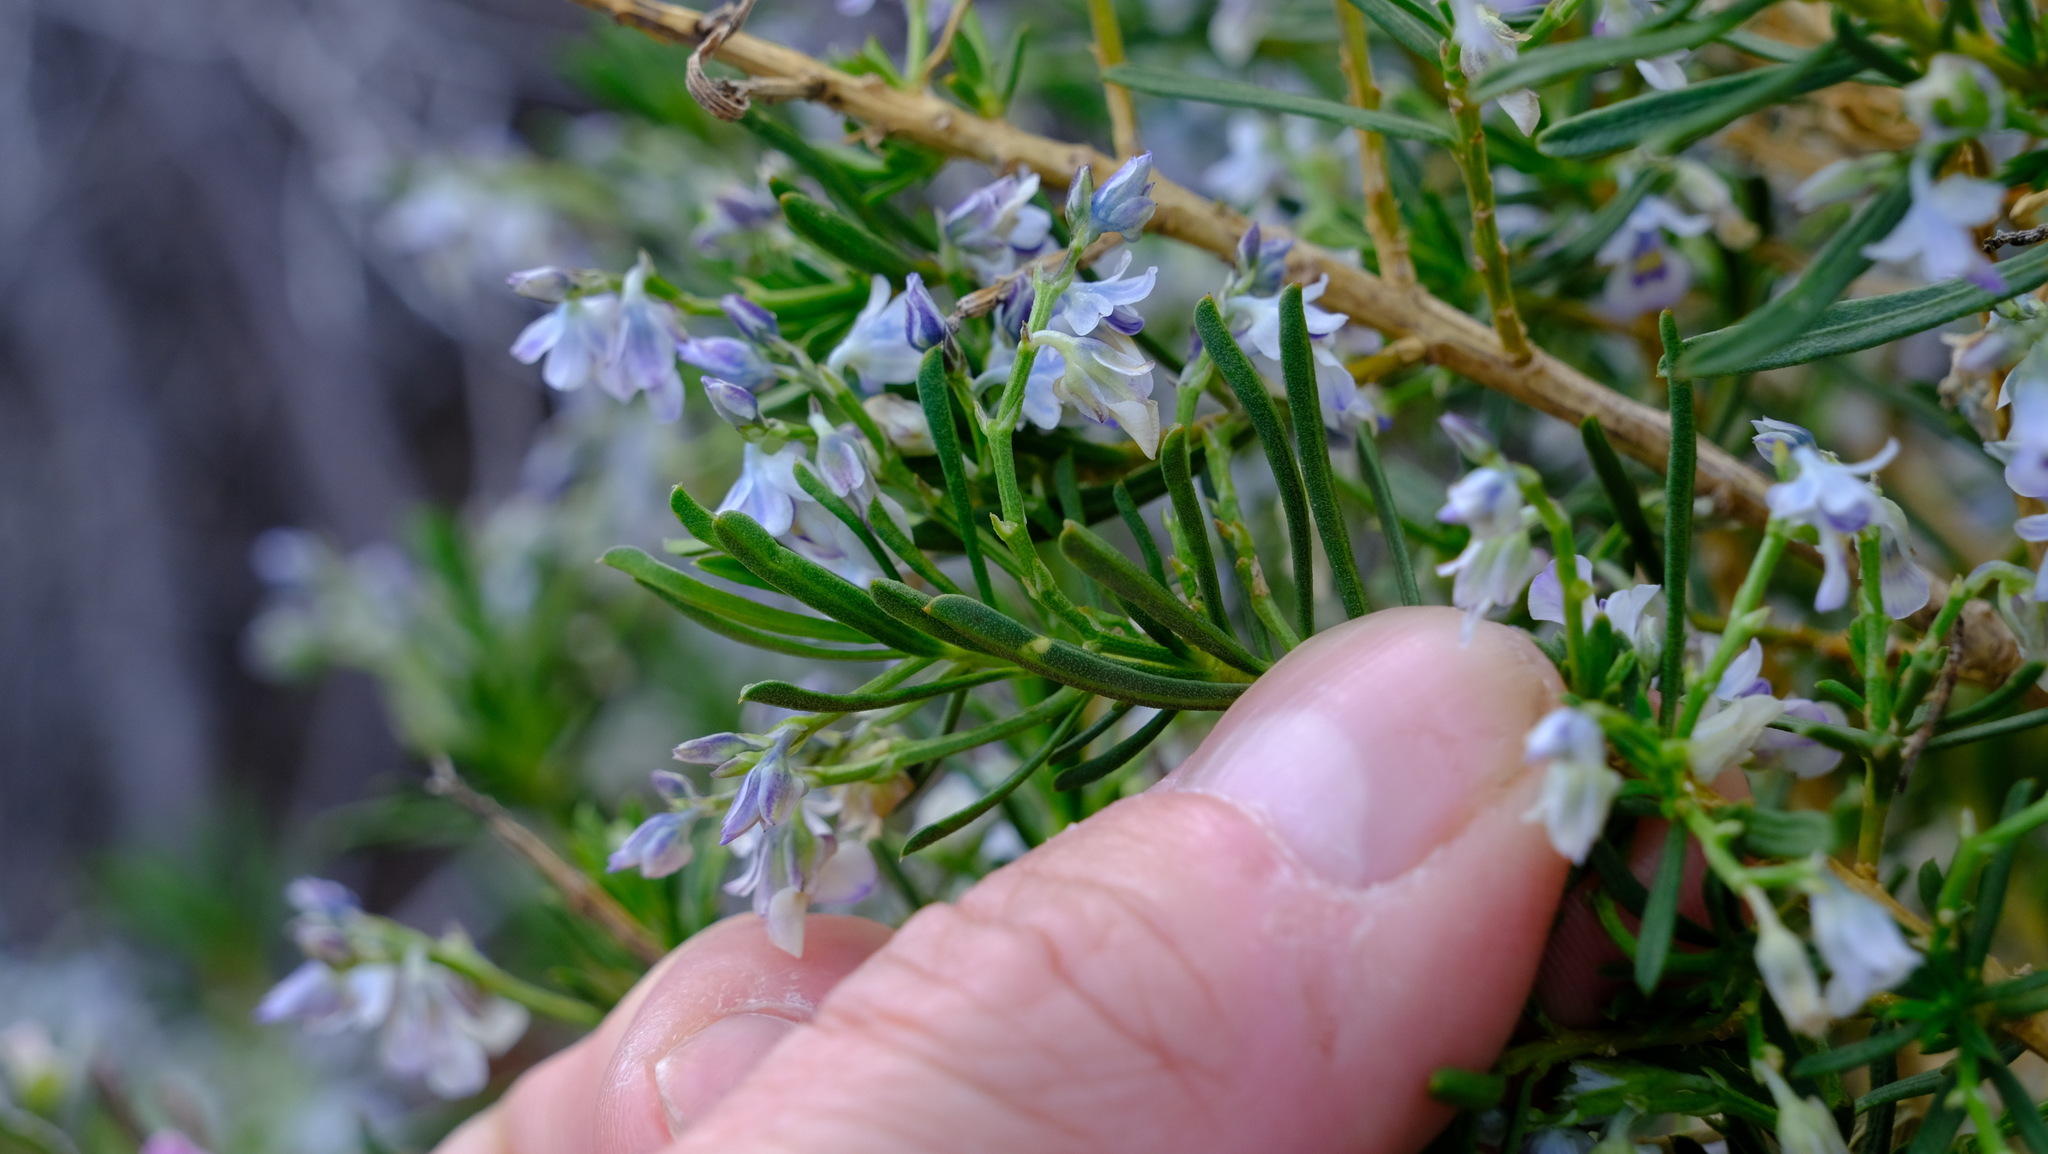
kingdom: Plantae
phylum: Tracheophyta
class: Magnoliopsida
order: Malpighiales
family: Violaceae
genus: Pigea
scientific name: Pigea floribunda
